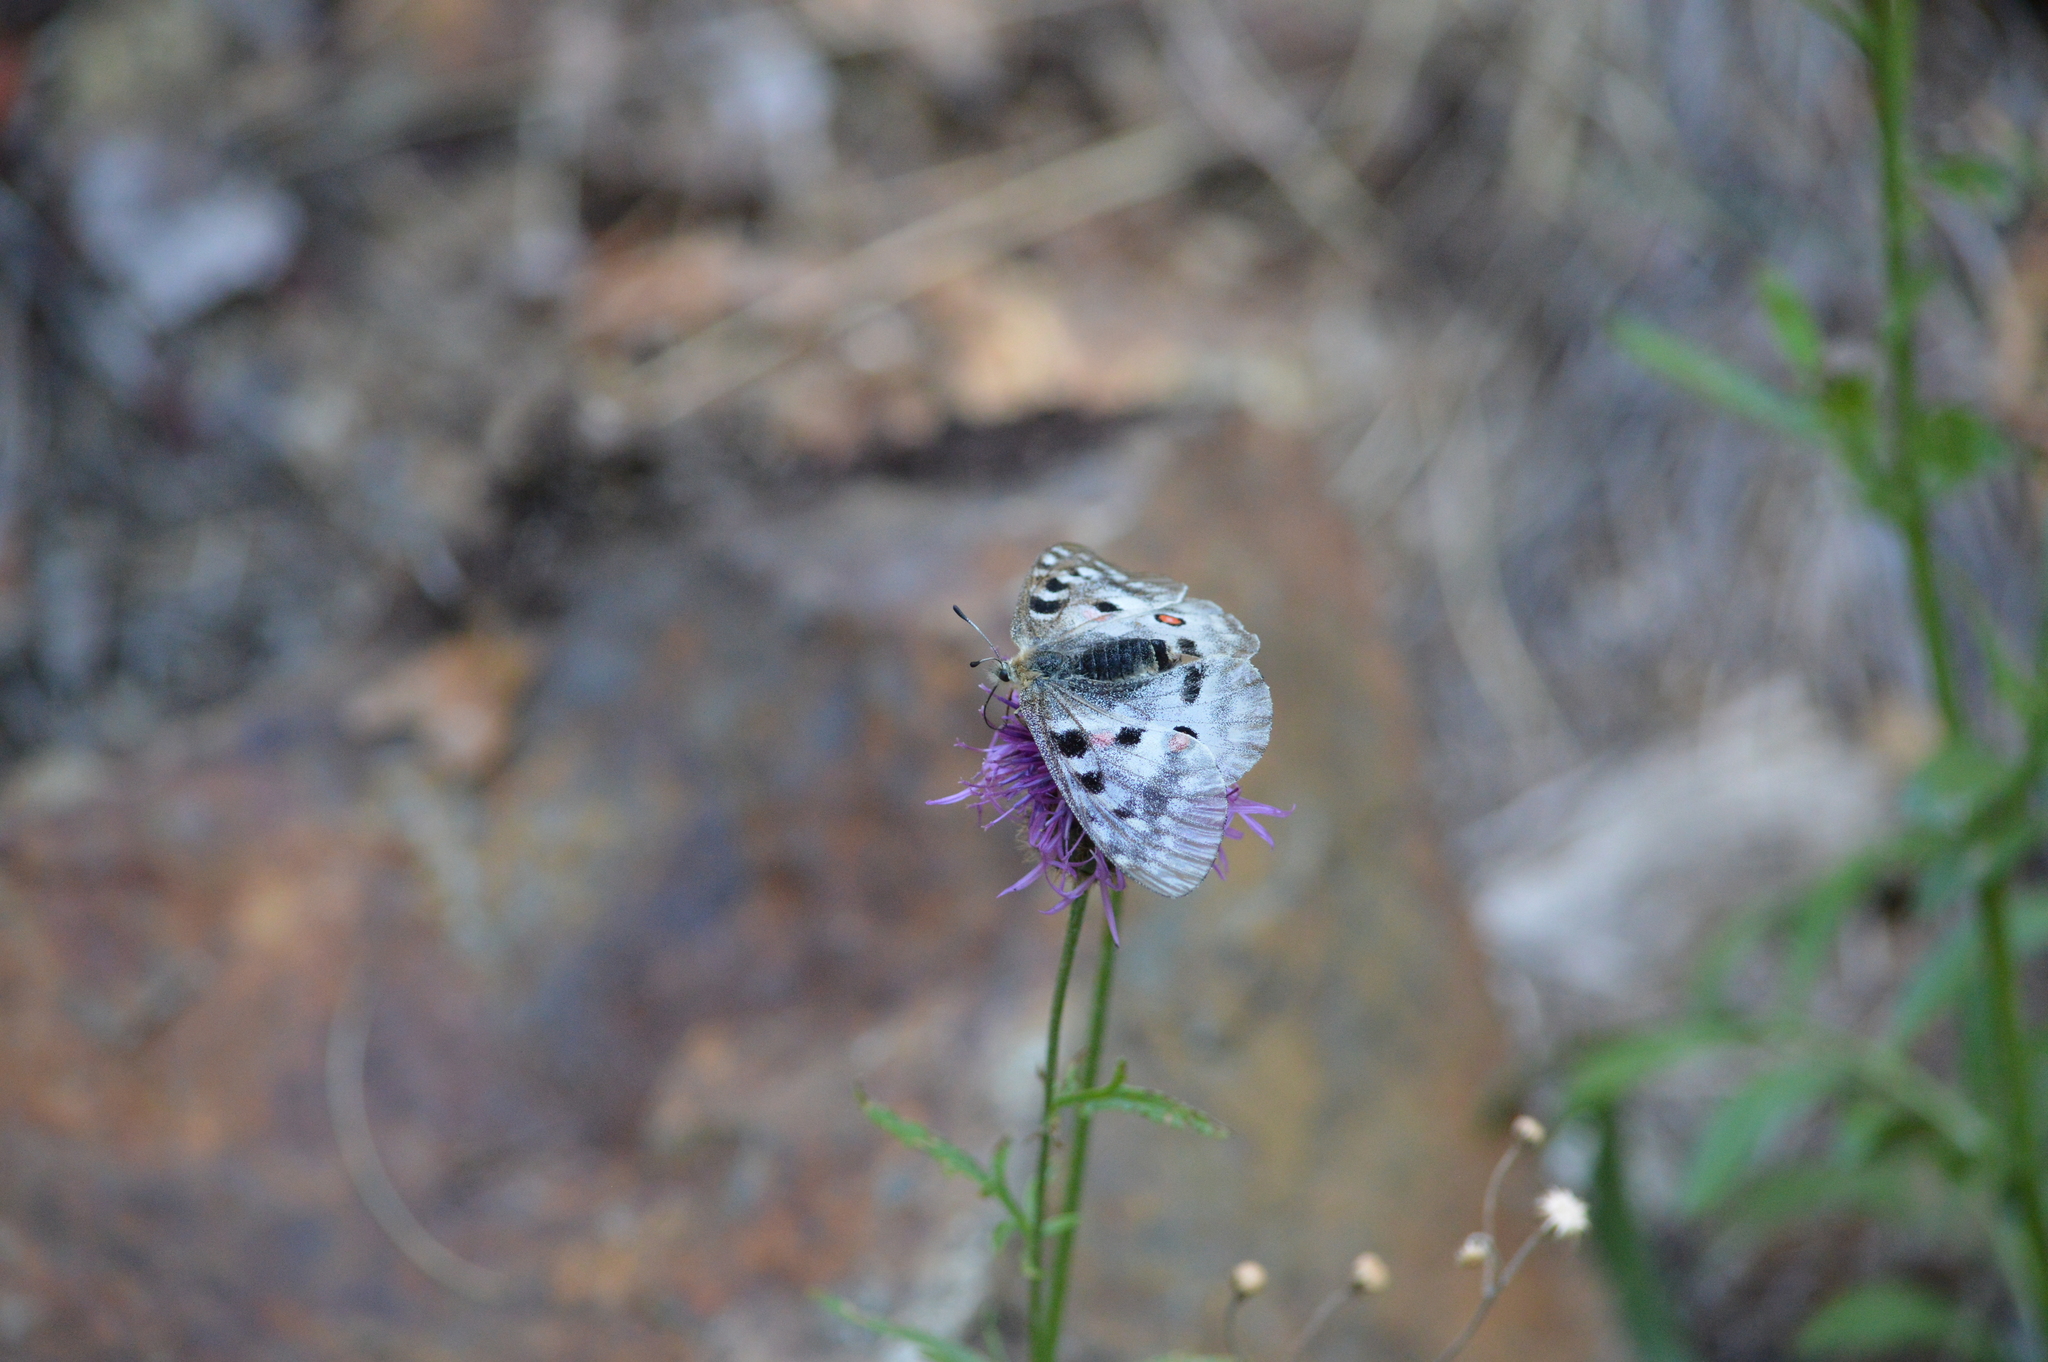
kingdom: Animalia
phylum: Arthropoda
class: Insecta
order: Lepidoptera
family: Papilionidae
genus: Parnassius
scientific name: Parnassius apollo
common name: Apollo
